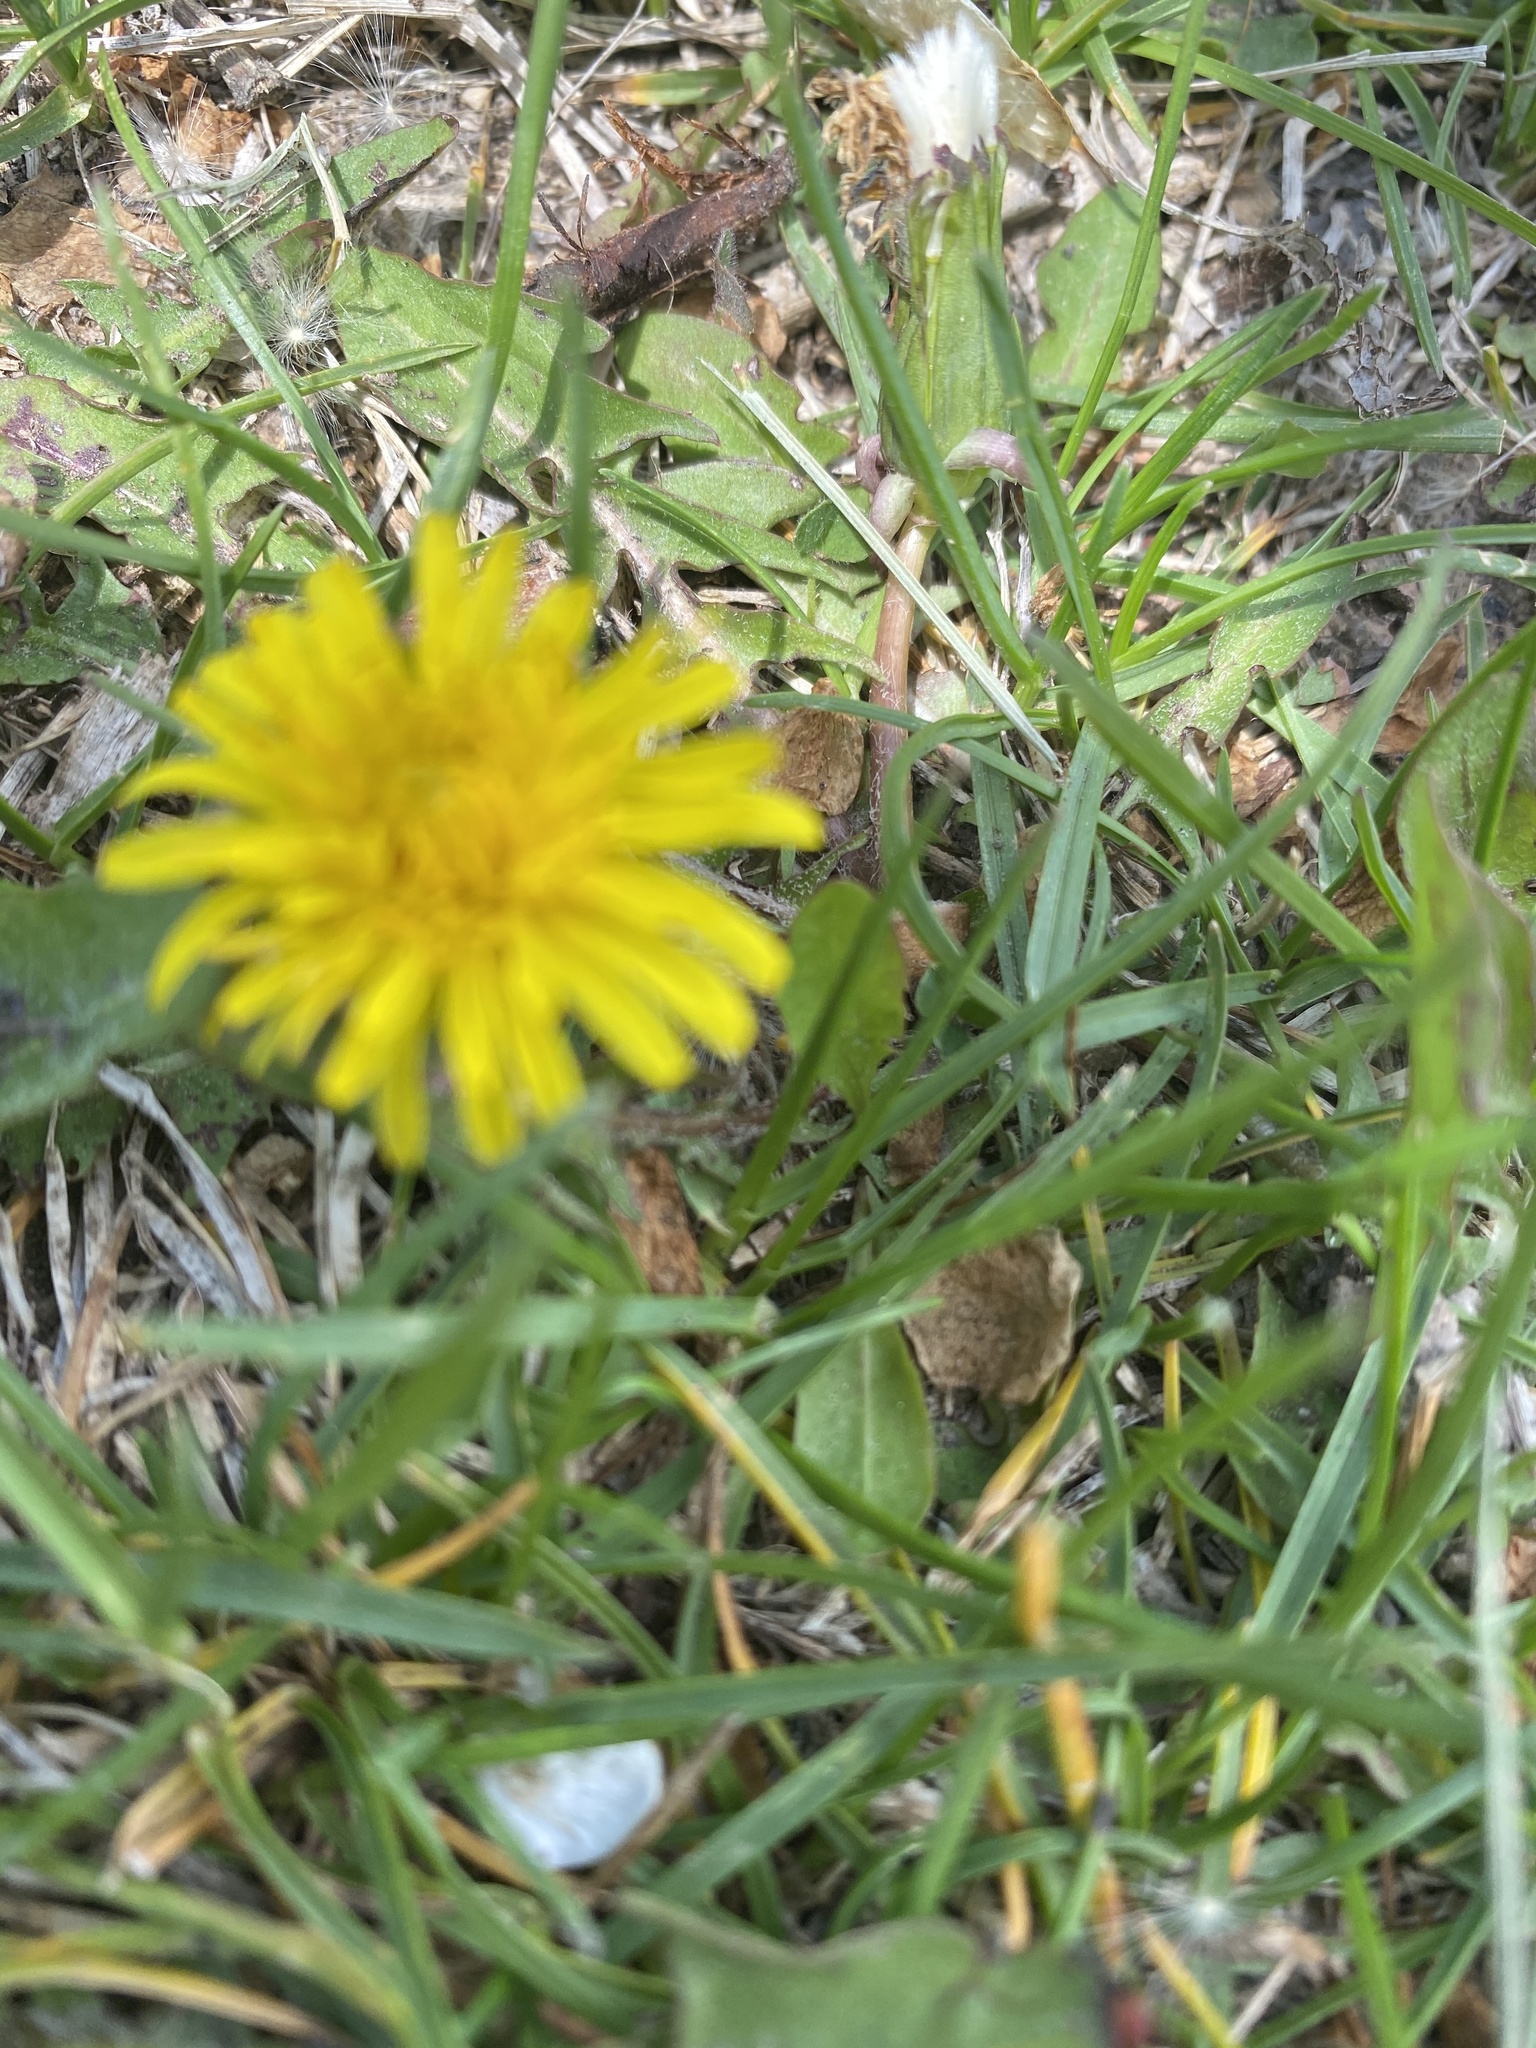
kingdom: Plantae
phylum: Tracheophyta
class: Magnoliopsida
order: Asterales
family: Asteraceae
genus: Taraxacum
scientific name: Taraxacum officinale
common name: Common dandelion
